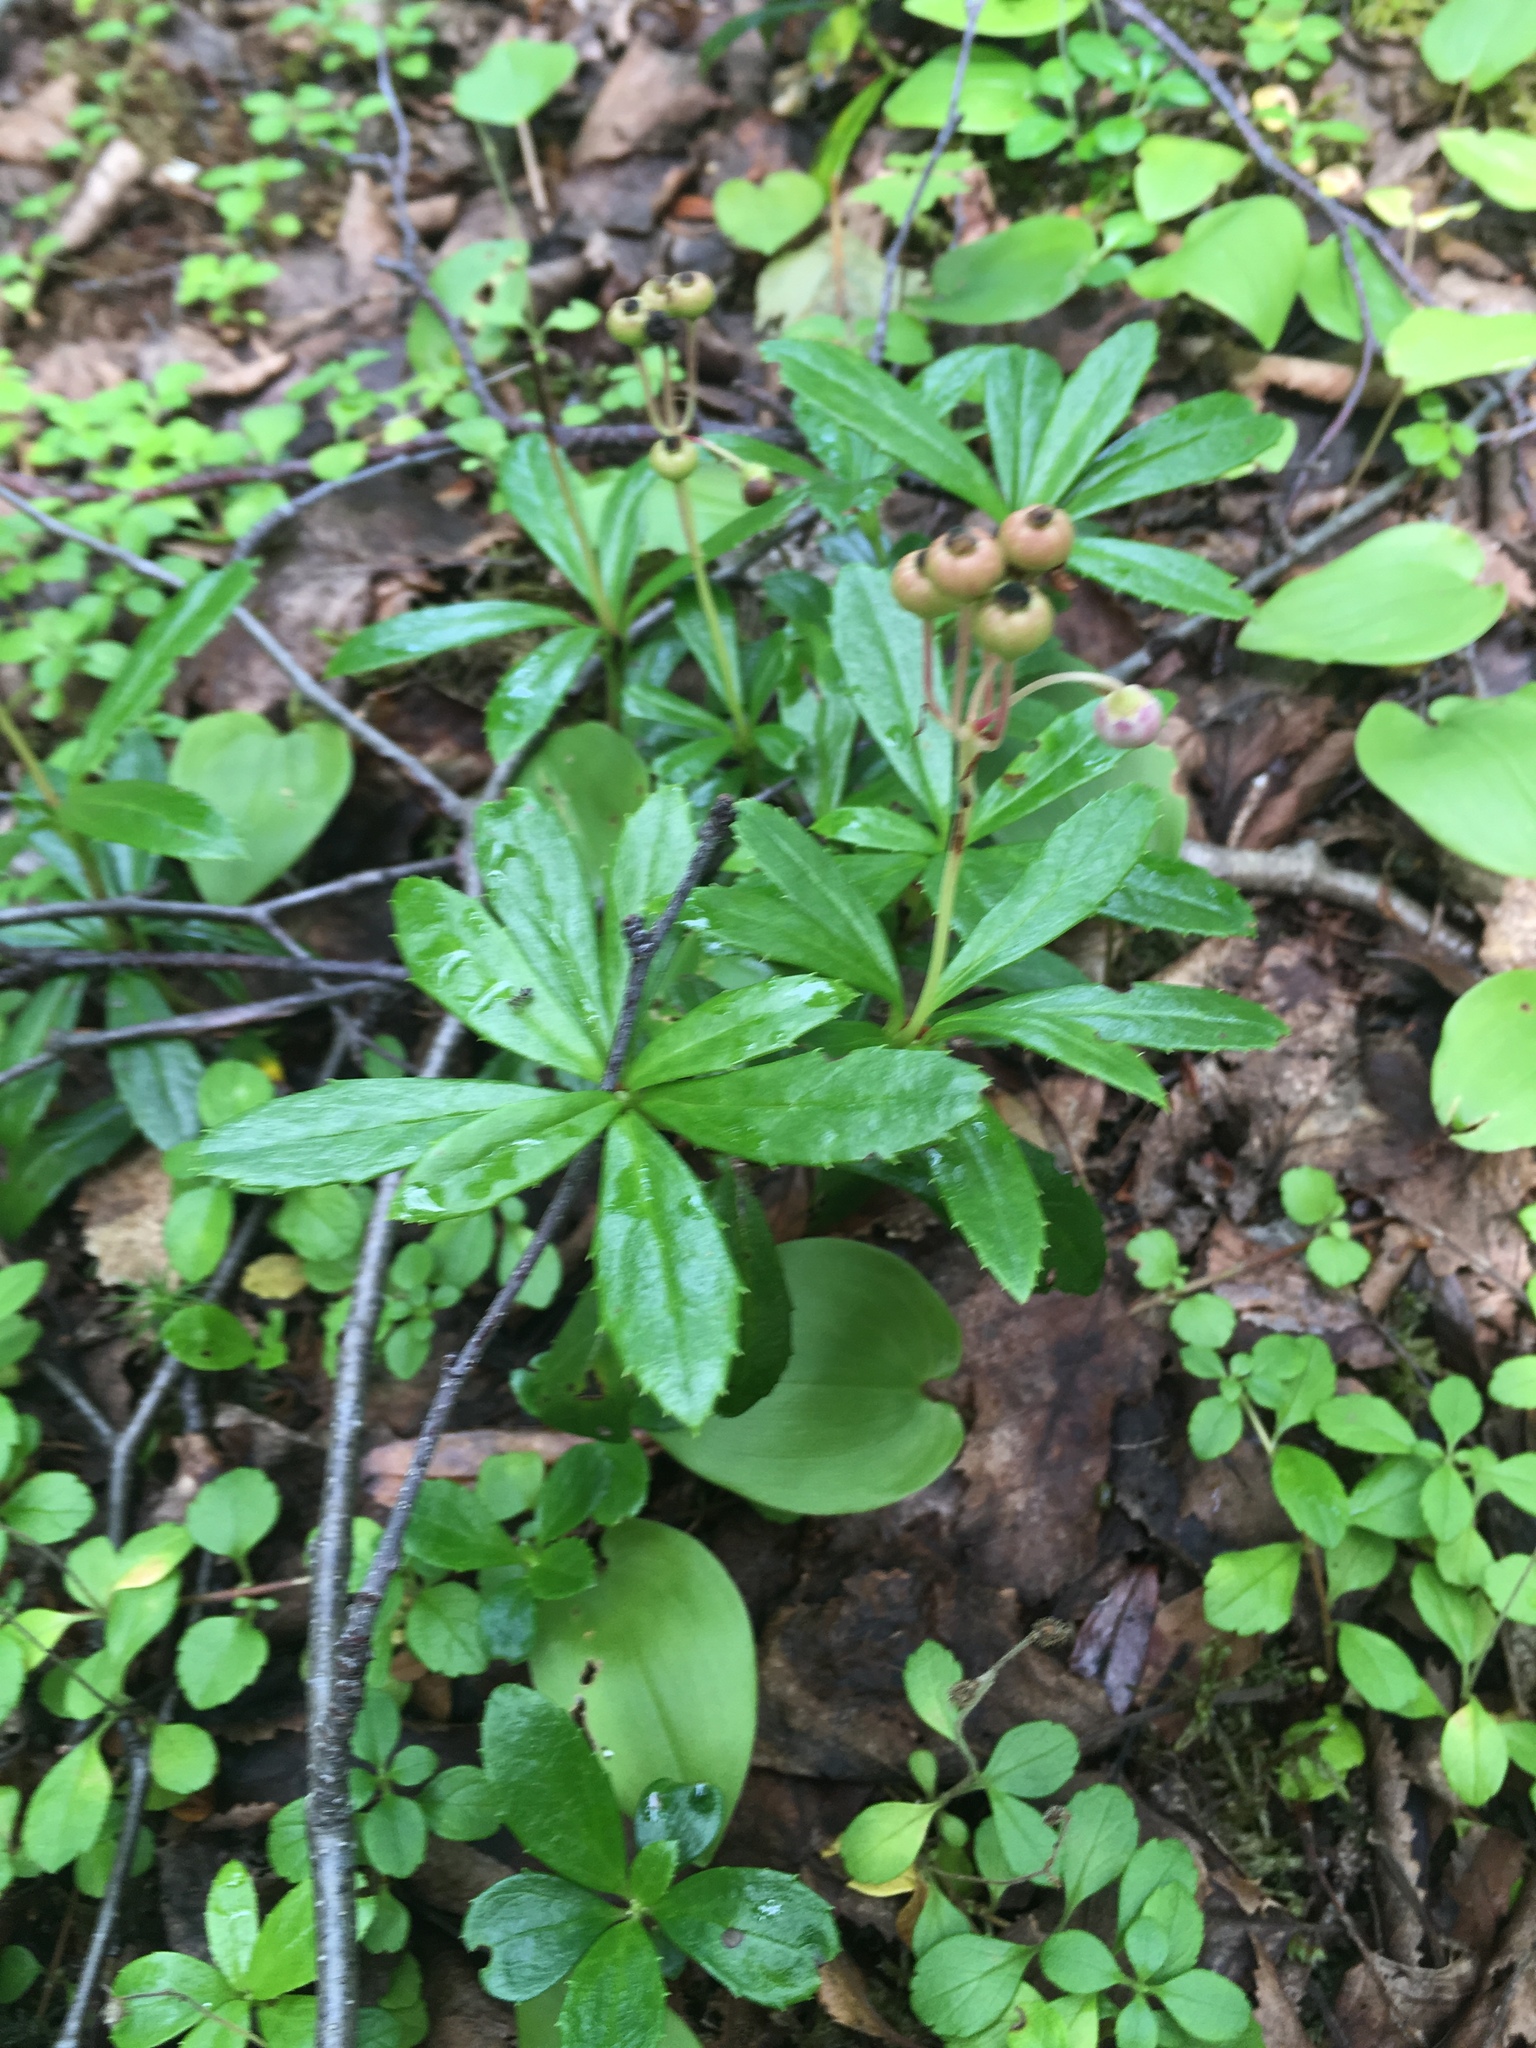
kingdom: Plantae
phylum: Tracheophyta
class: Magnoliopsida
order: Ericales
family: Ericaceae
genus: Chimaphila
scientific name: Chimaphila umbellata
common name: Pipsissewa
